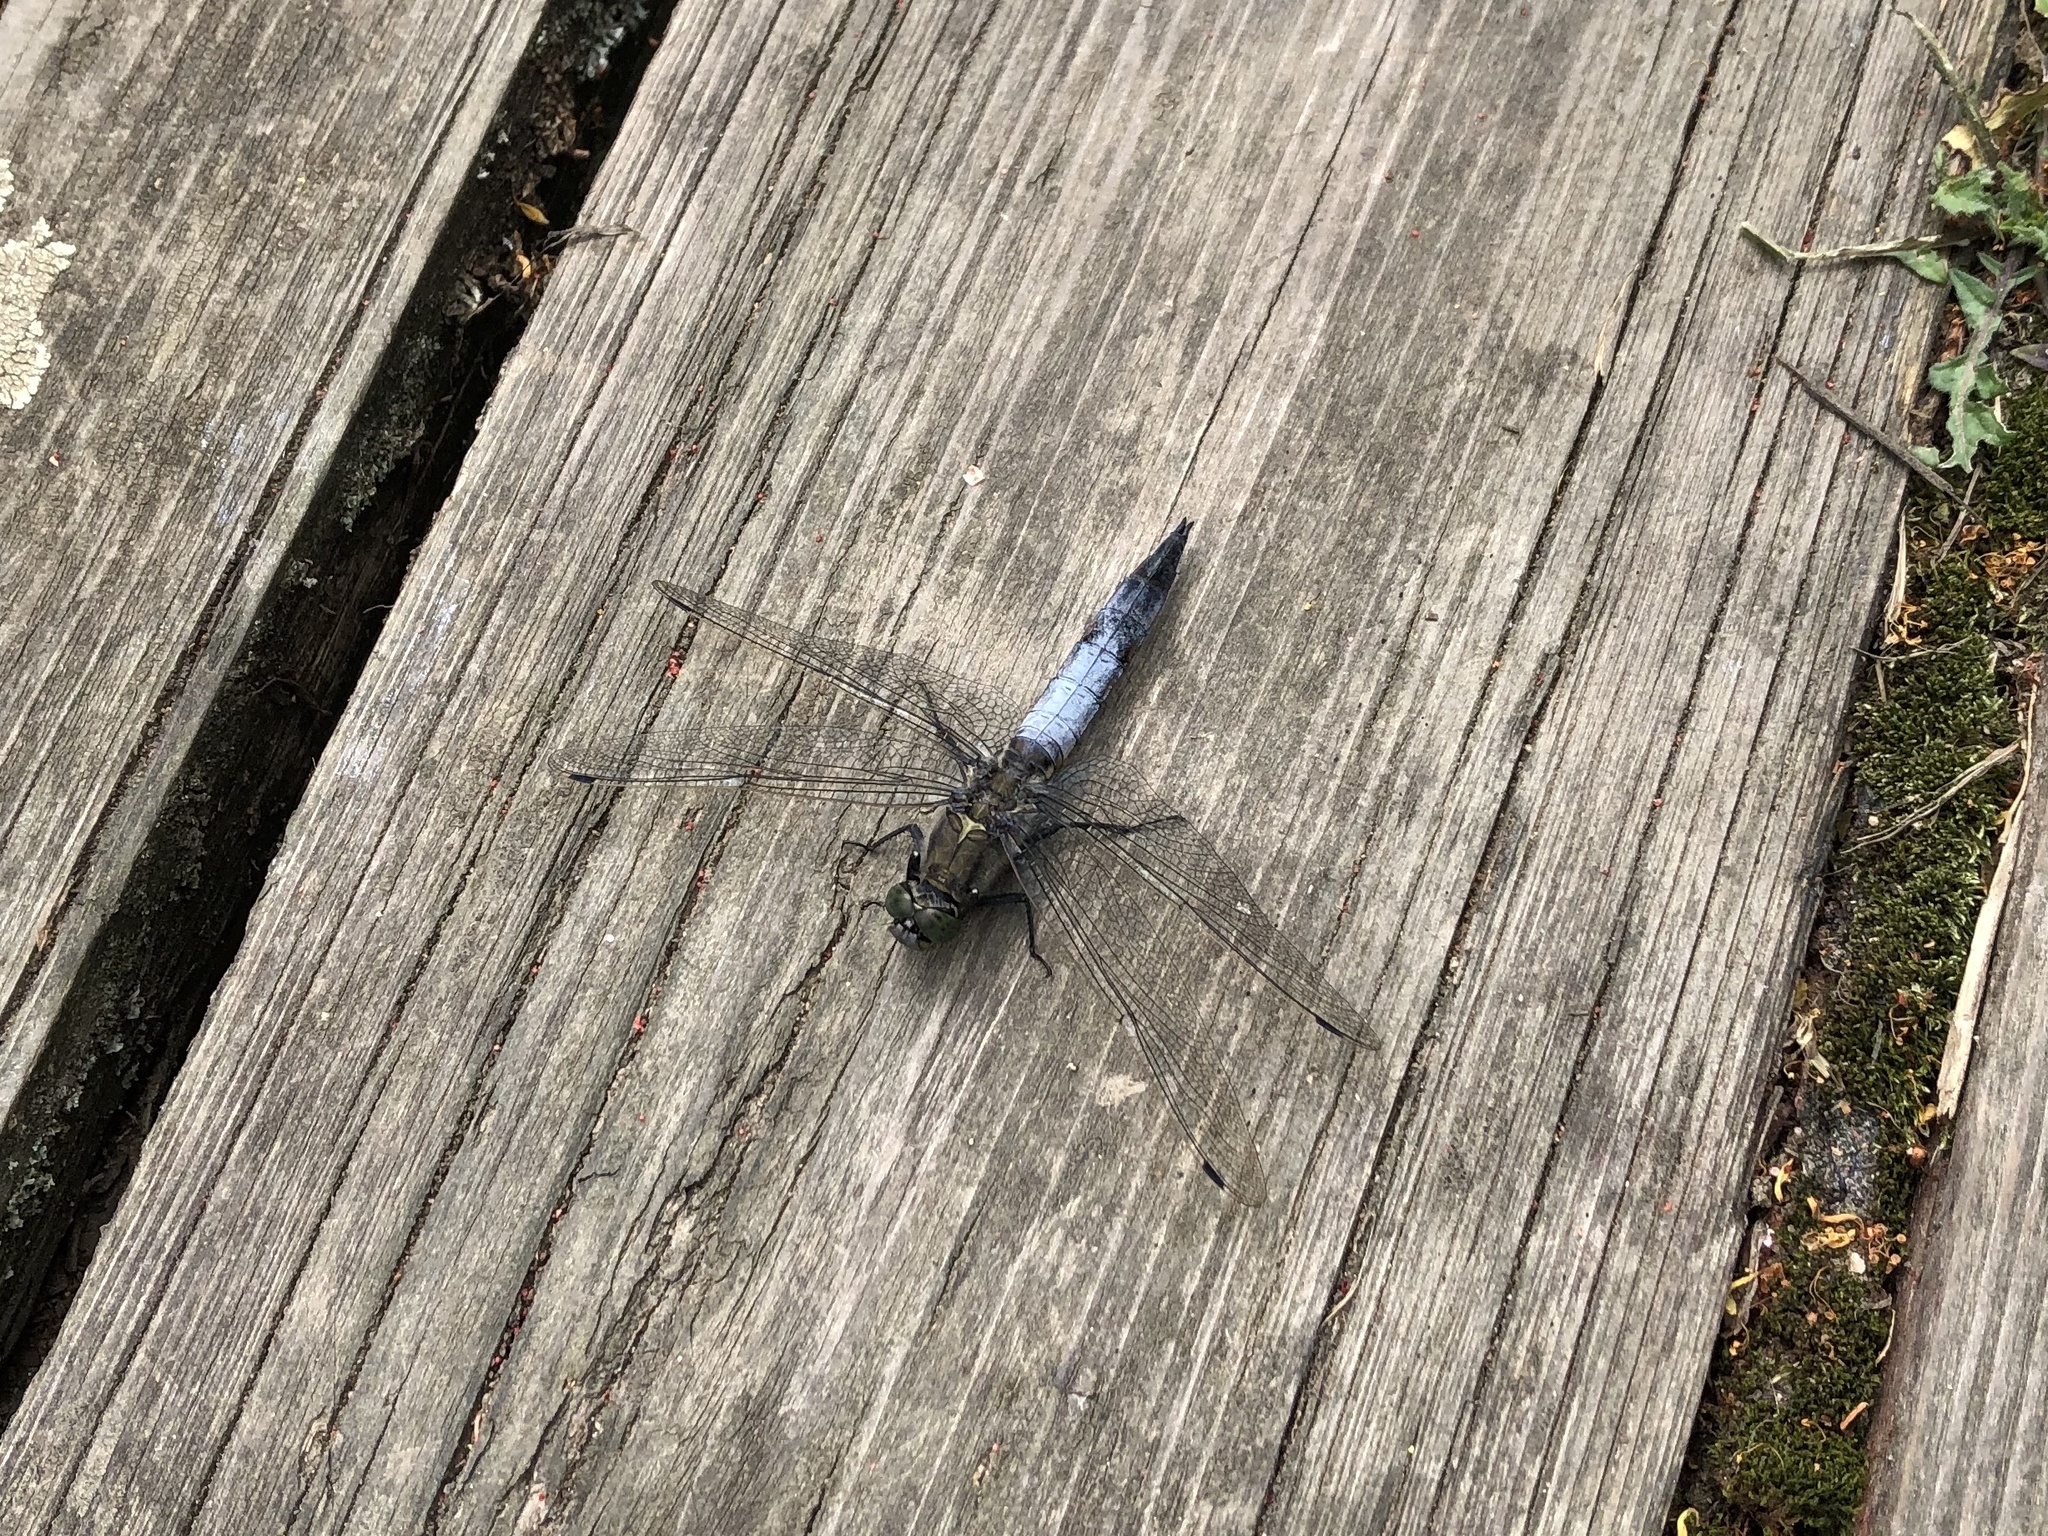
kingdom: Animalia
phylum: Arthropoda
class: Insecta
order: Odonata
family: Libellulidae
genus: Orthetrum
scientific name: Orthetrum cancellatum
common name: Black-tailed skimmer
